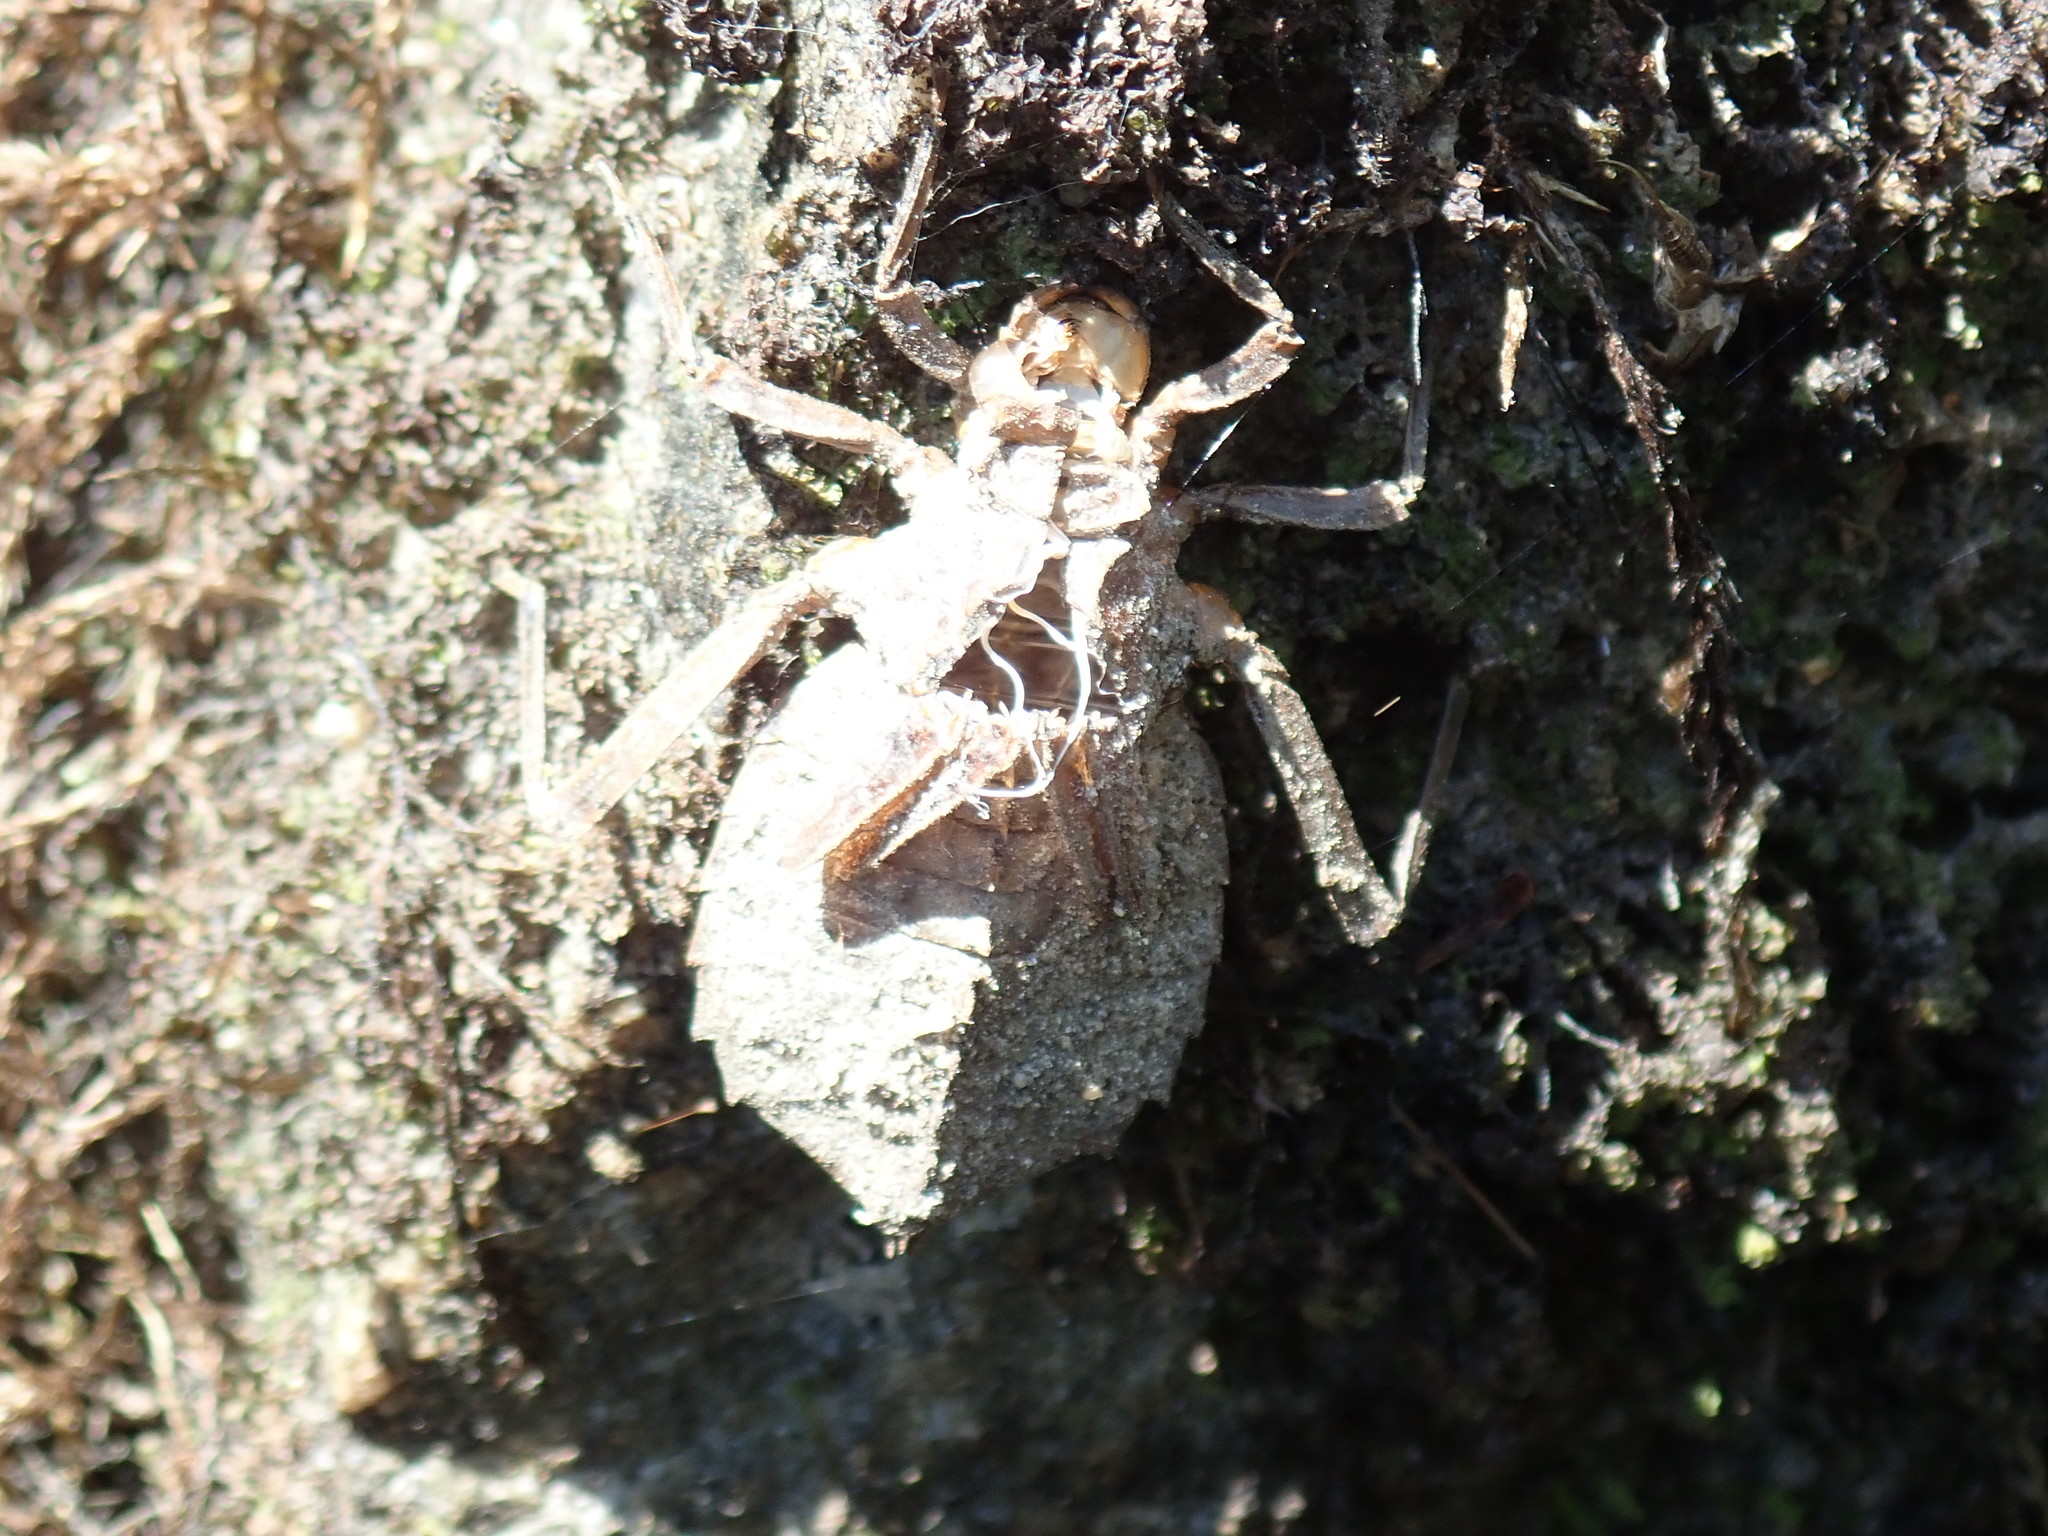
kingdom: Animalia
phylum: Arthropoda
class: Insecta
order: Odonata
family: Gomphidae
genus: Hagenius
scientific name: Hagenius brevistylus
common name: Dragonhunter
